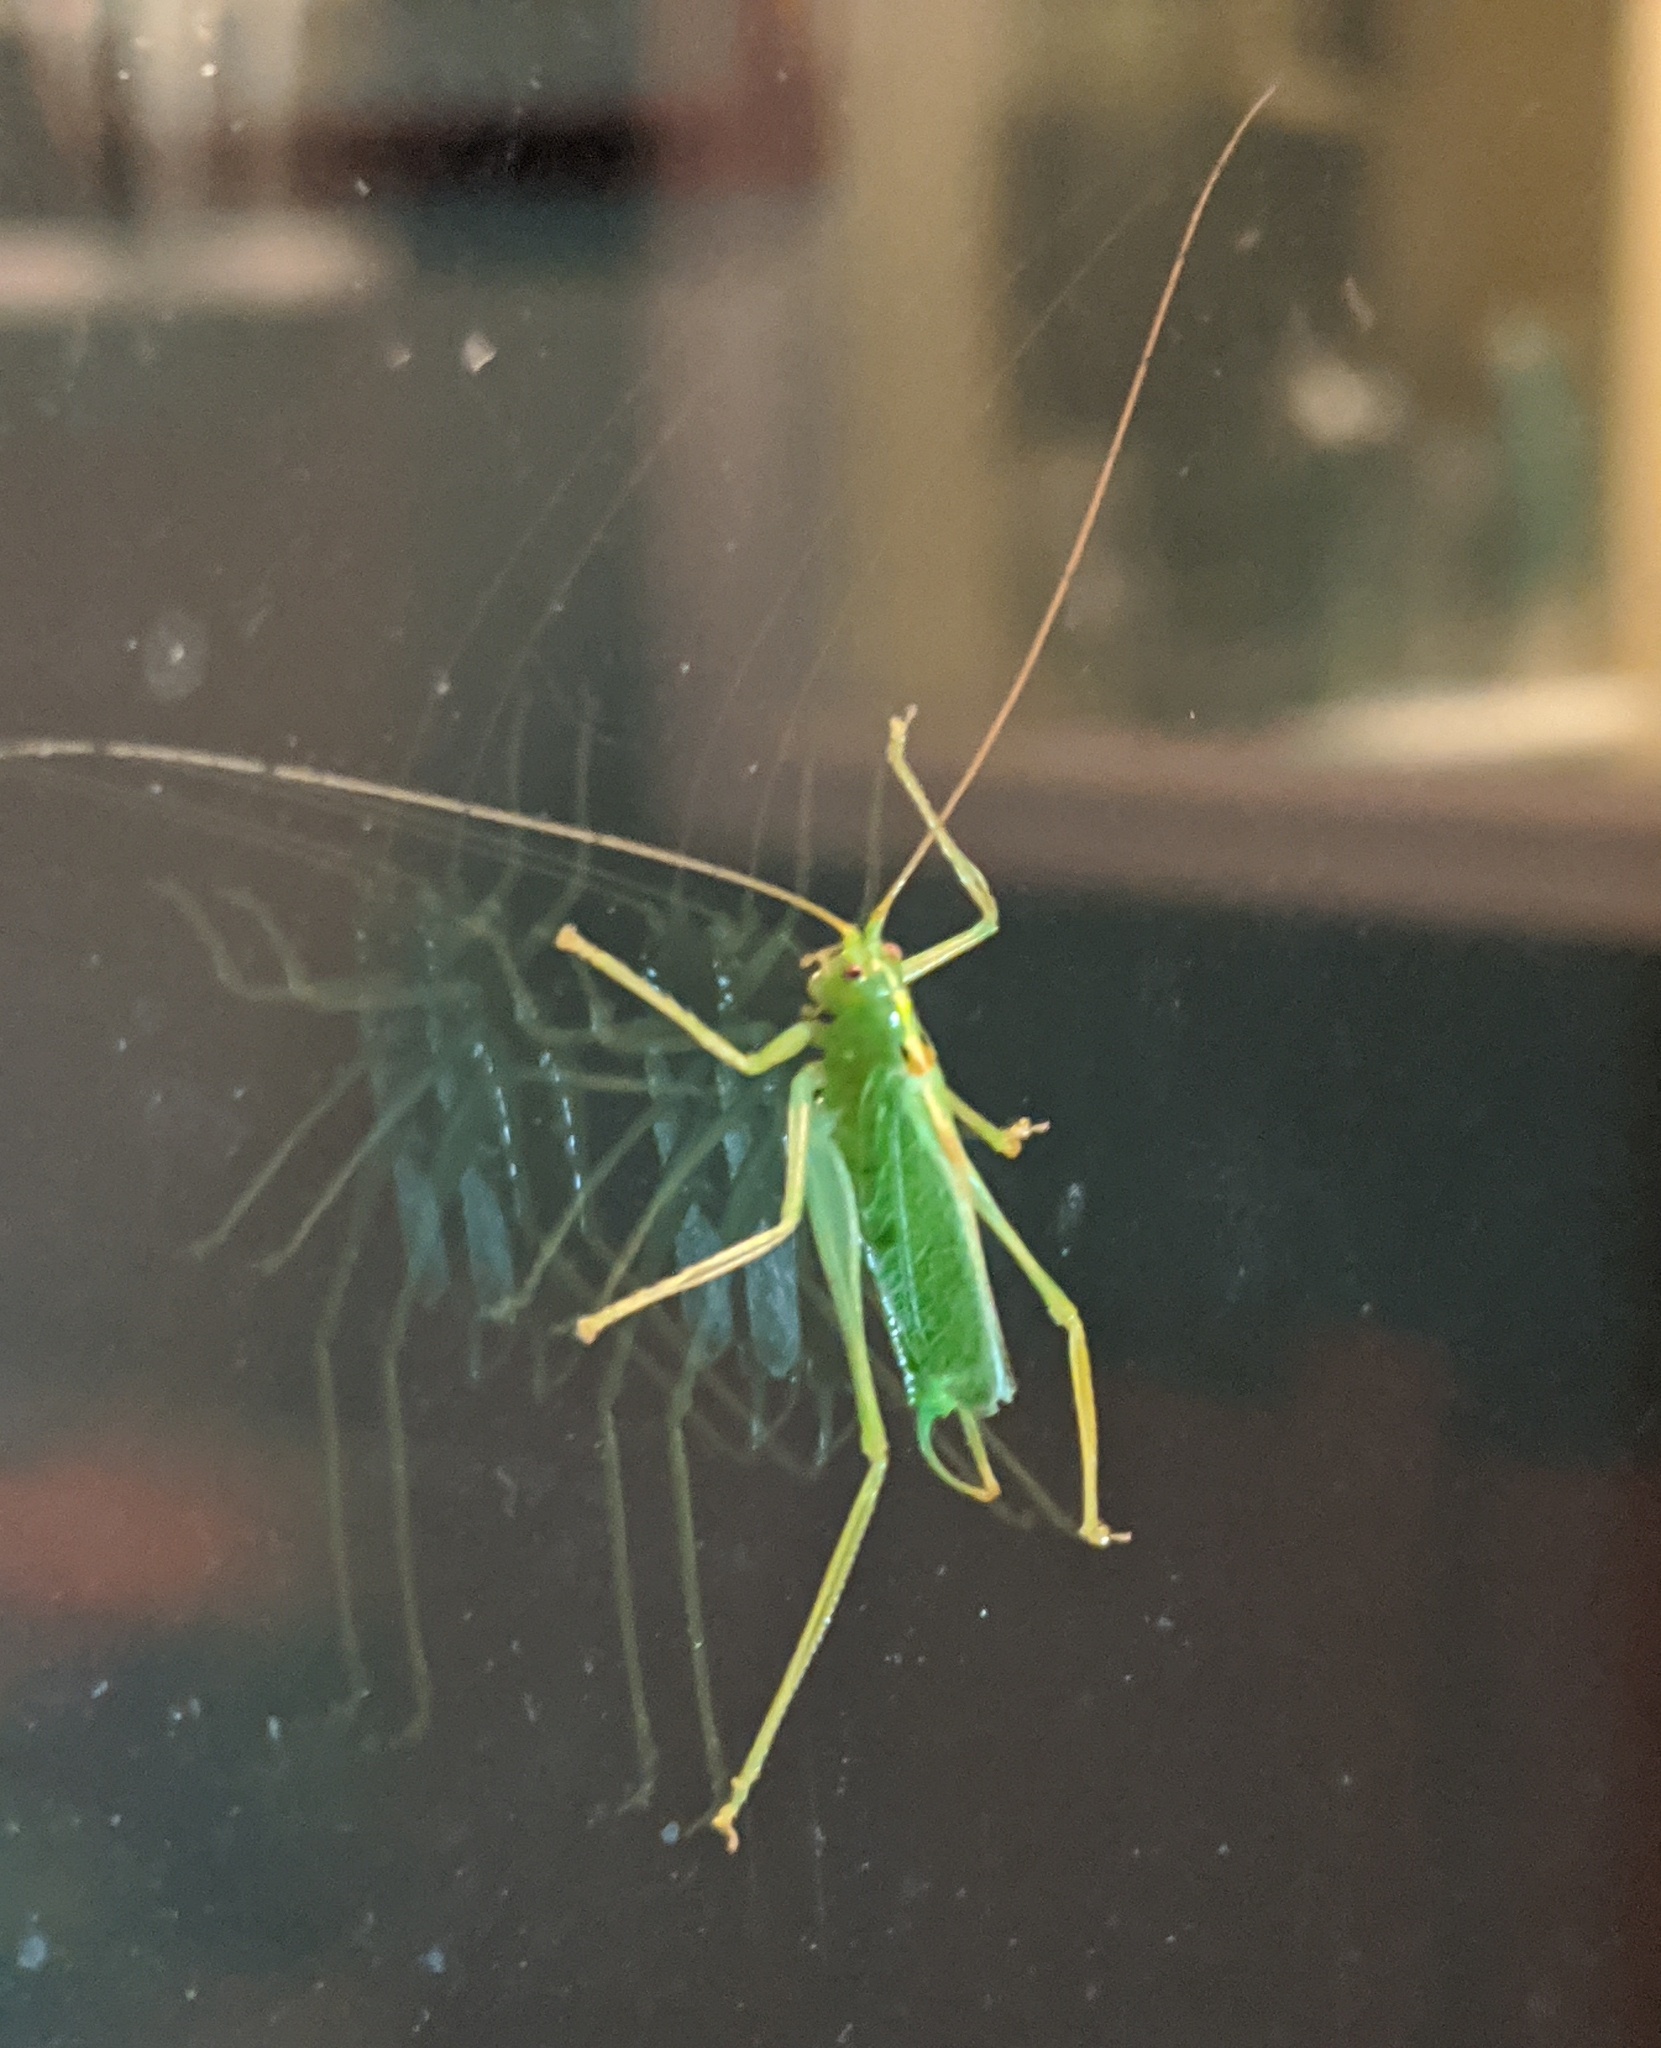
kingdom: Animalia
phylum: Arthropoda
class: Insecta
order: Orthoptera
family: Tettigoniidae
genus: Meconema
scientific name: Meconema thalassinum
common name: Oak bush-cricket
